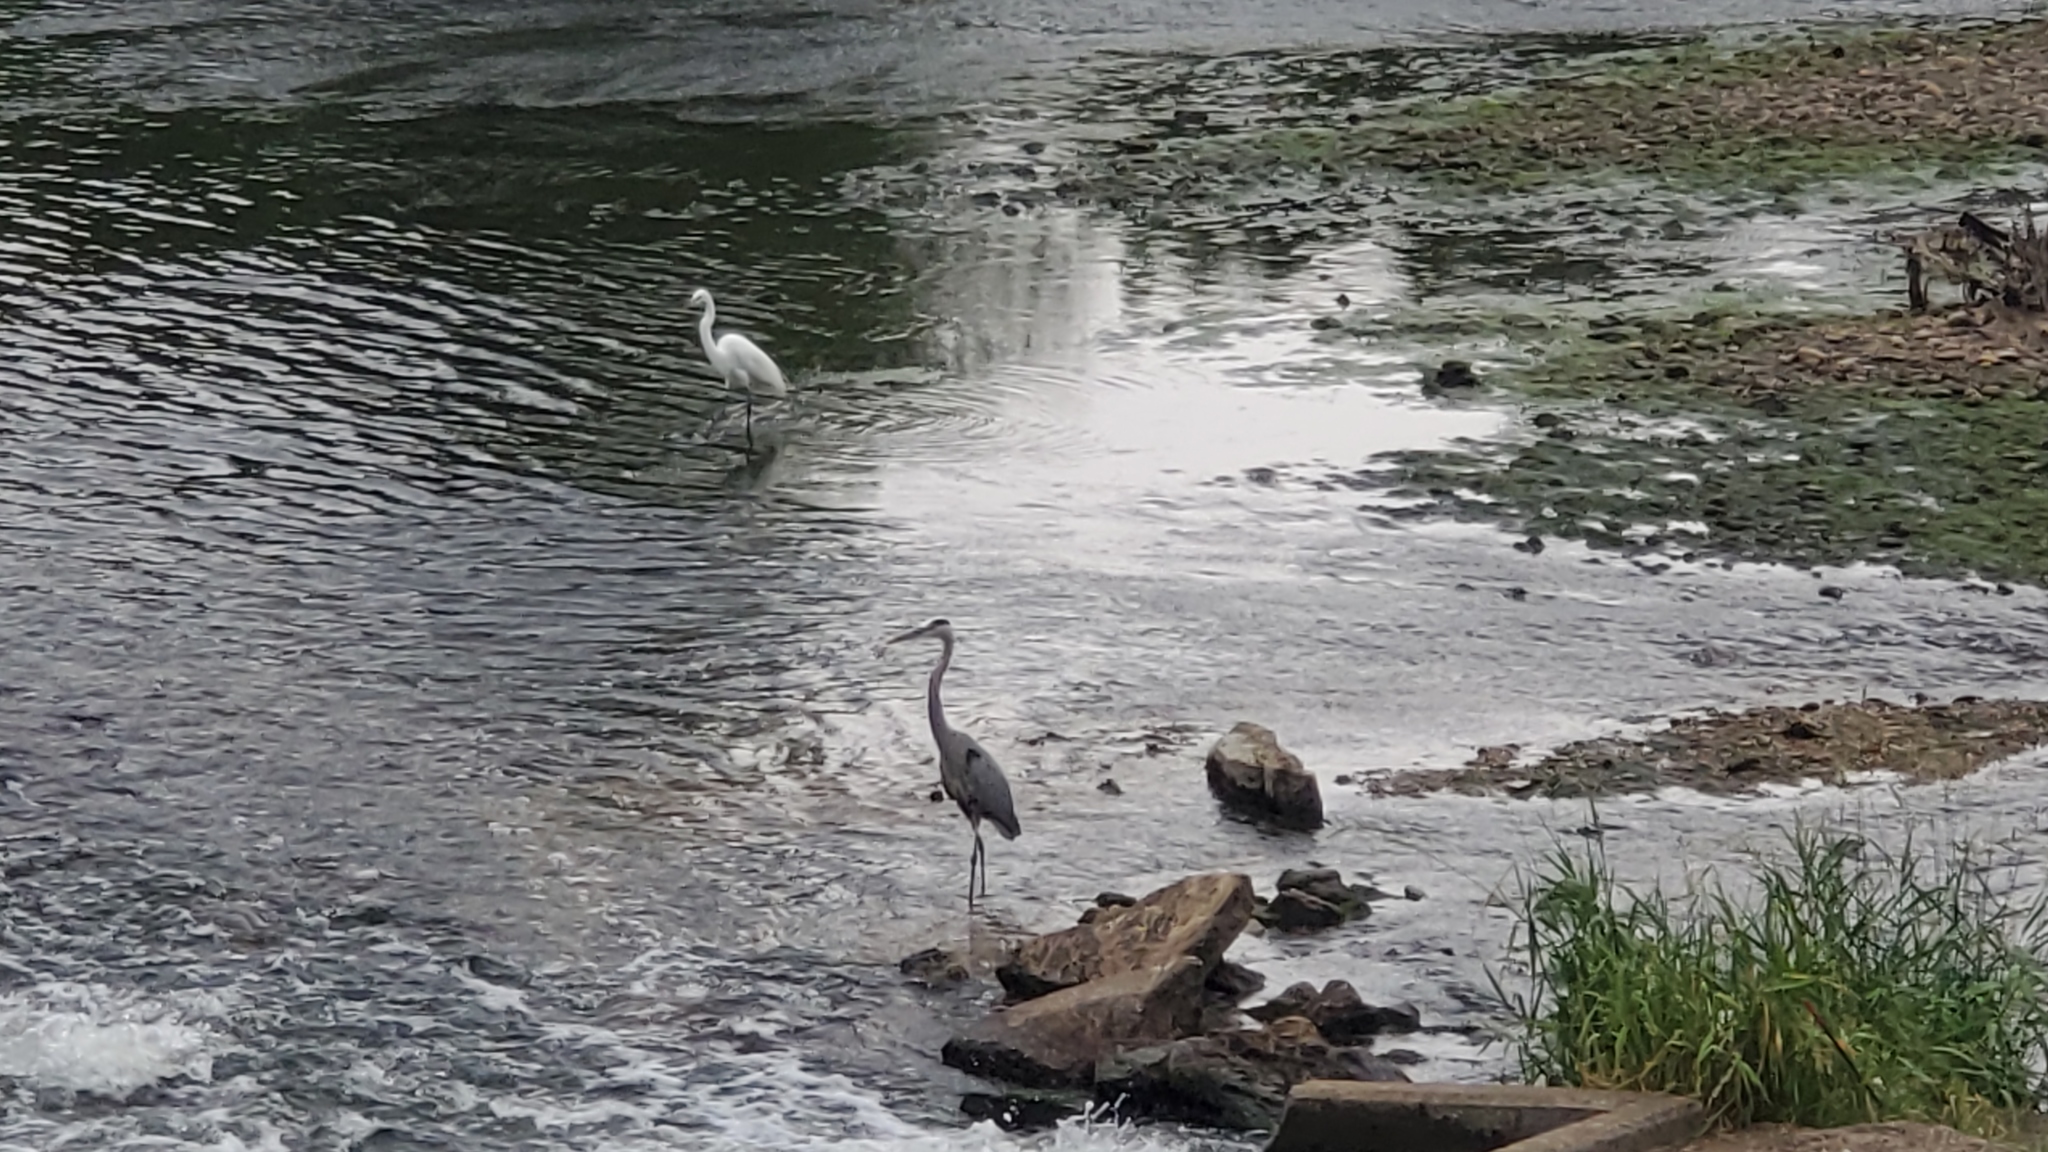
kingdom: Animalia
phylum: Chordata
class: Aves
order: Pelecaniformes
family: Ardeidae
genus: Ardea
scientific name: Ardea herodias
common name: Great blue heron
